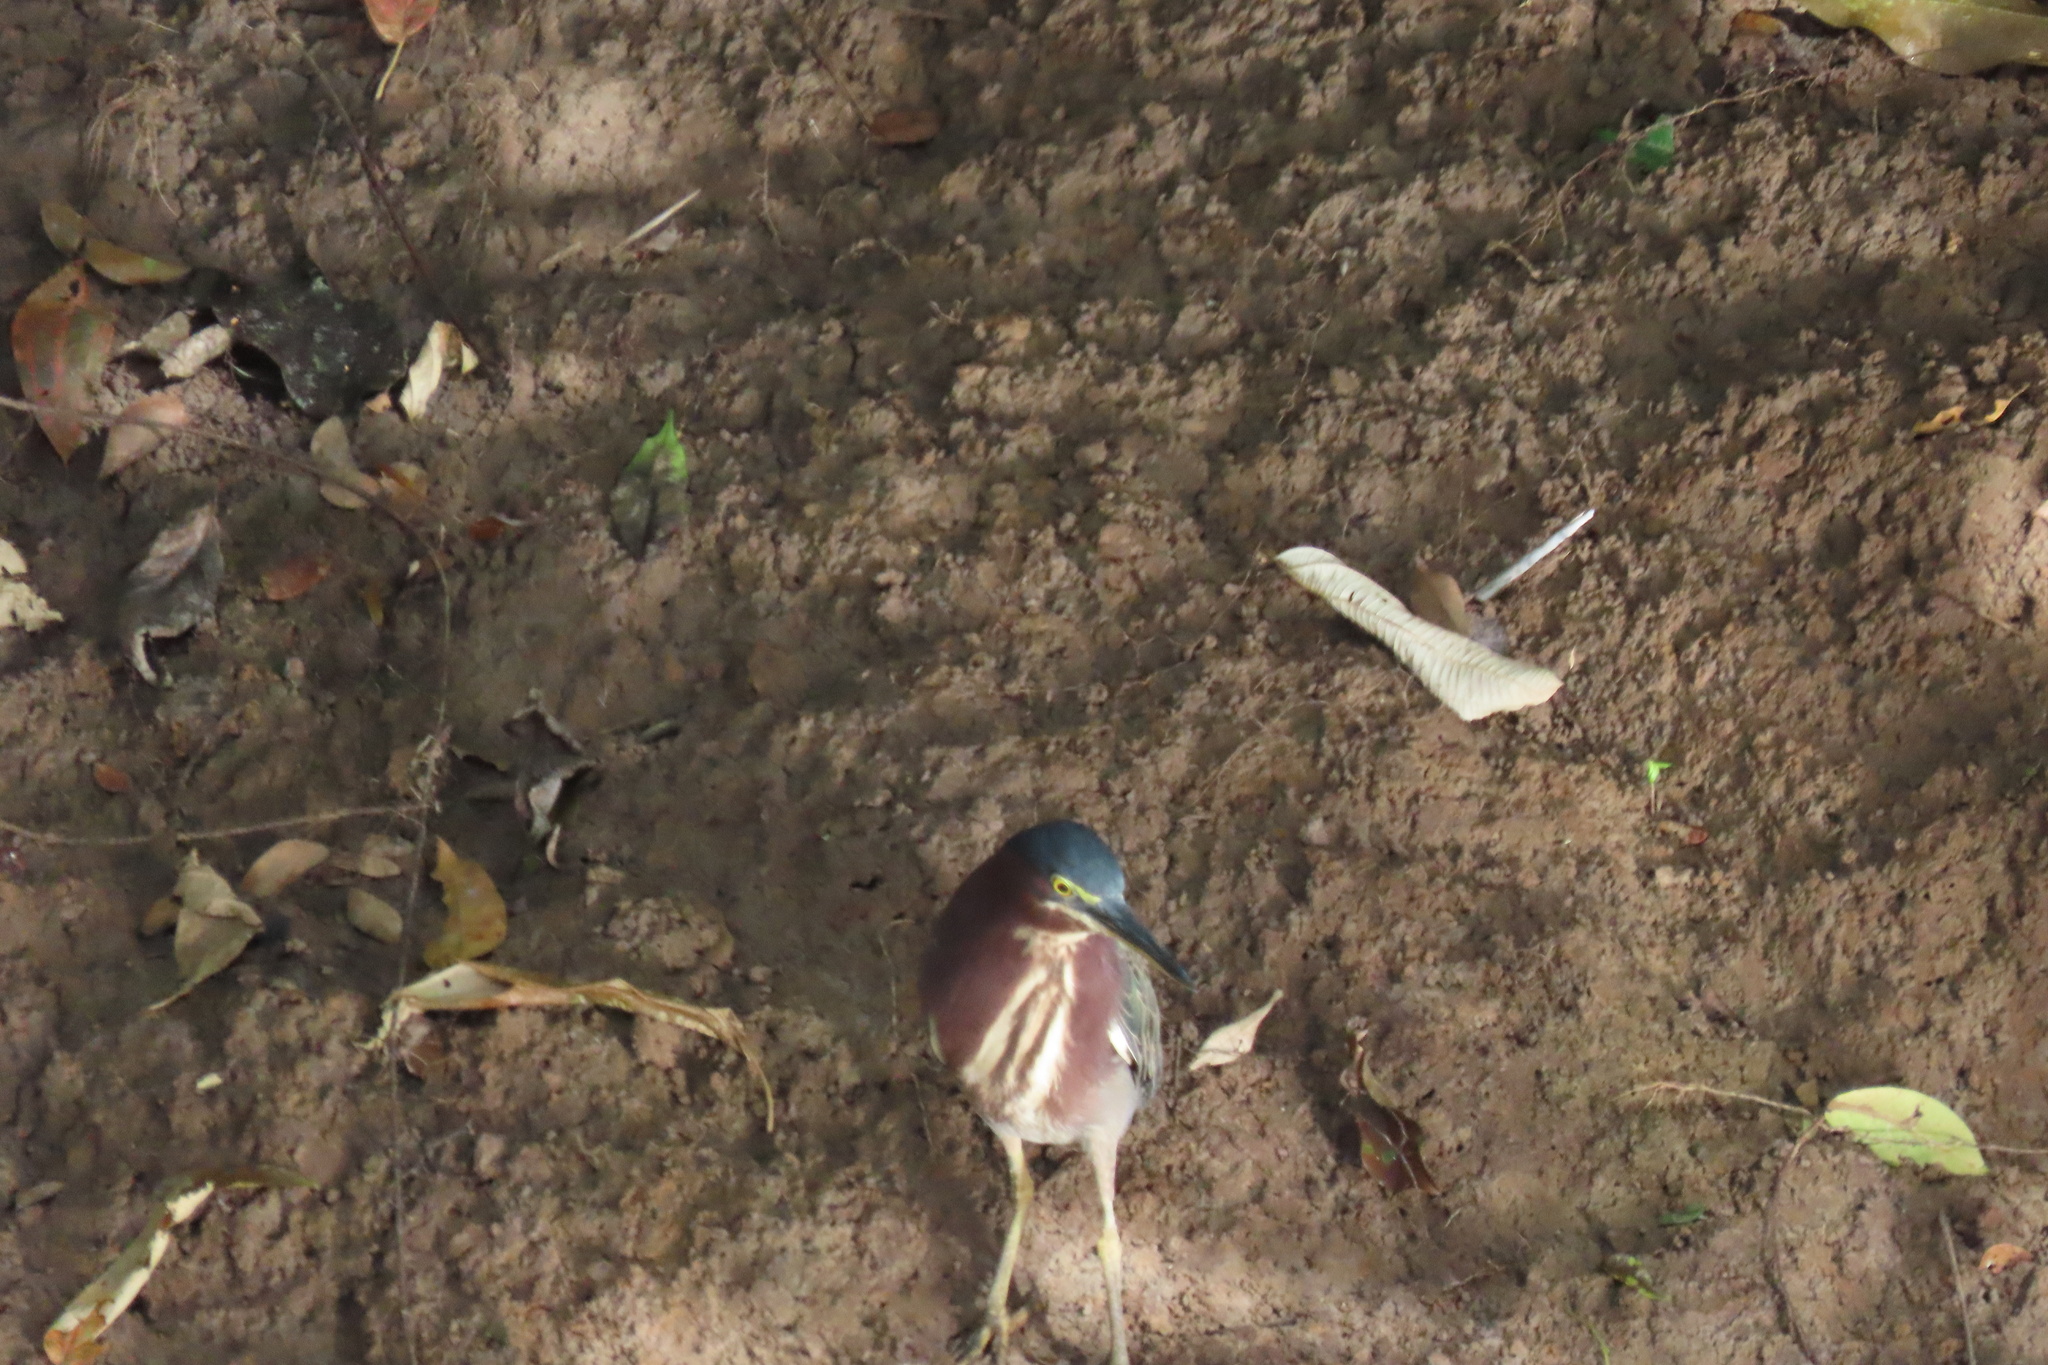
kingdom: Animalia
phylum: Chordata
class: Aves
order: Pelecaniformes
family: Ardeidae
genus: Butorides
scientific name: Butorides virescens
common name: Green heron
